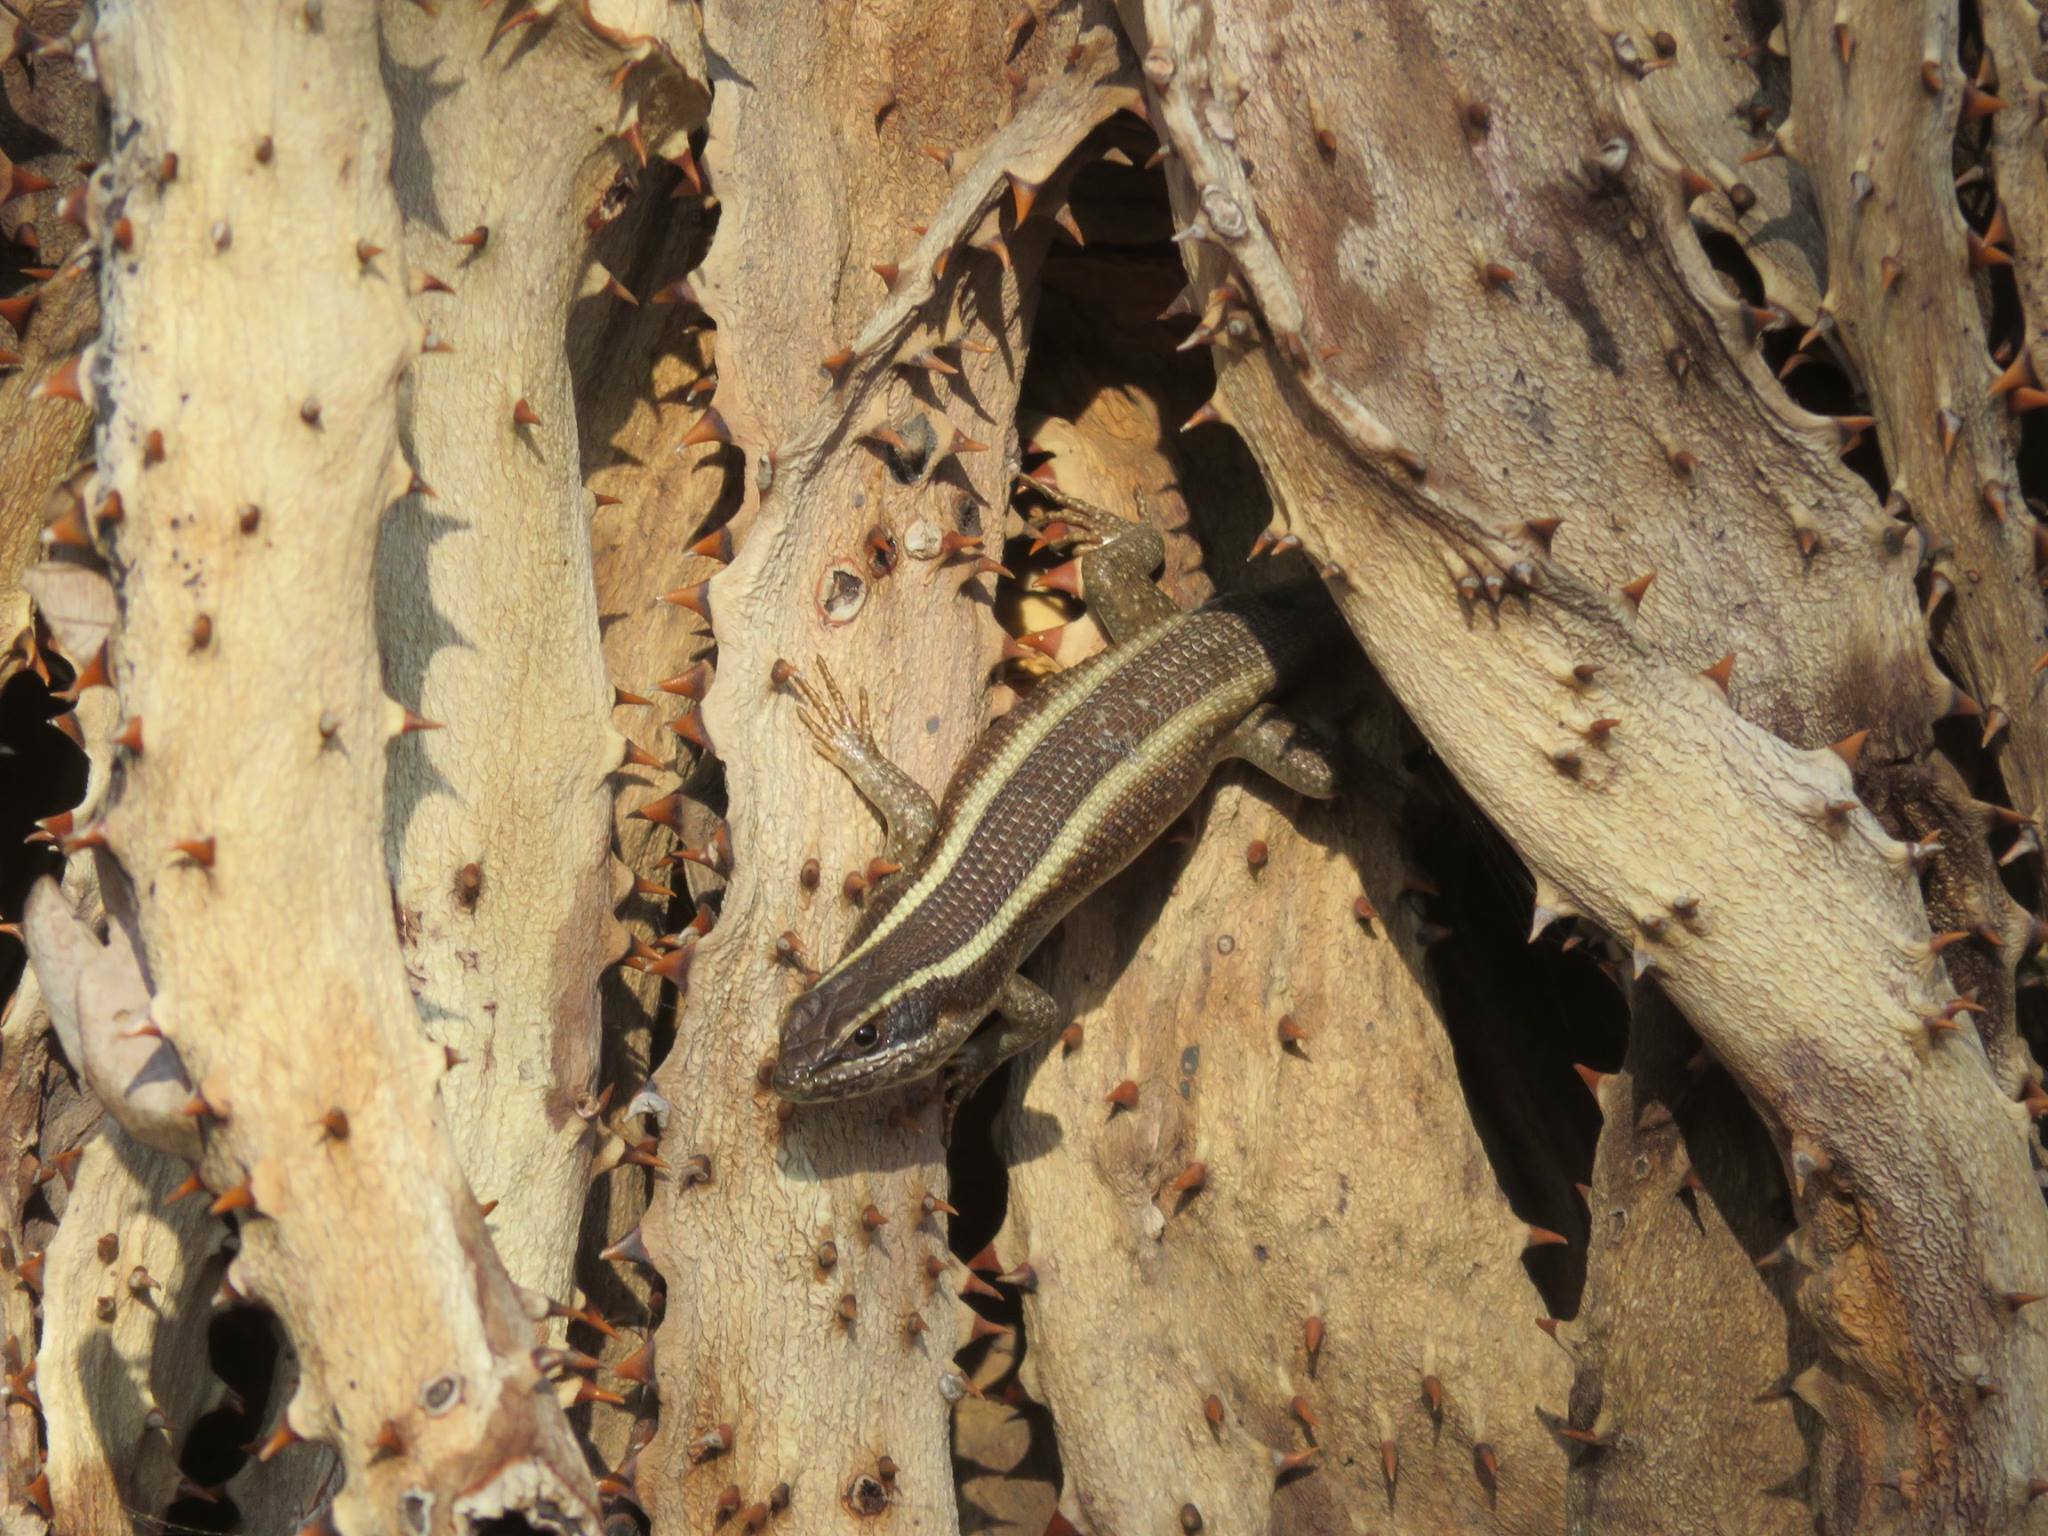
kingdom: Animalia
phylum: Chordata
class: Squamata
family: Scincidae
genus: Trachylepis
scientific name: Trachylepis striata
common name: African striped mabuya
